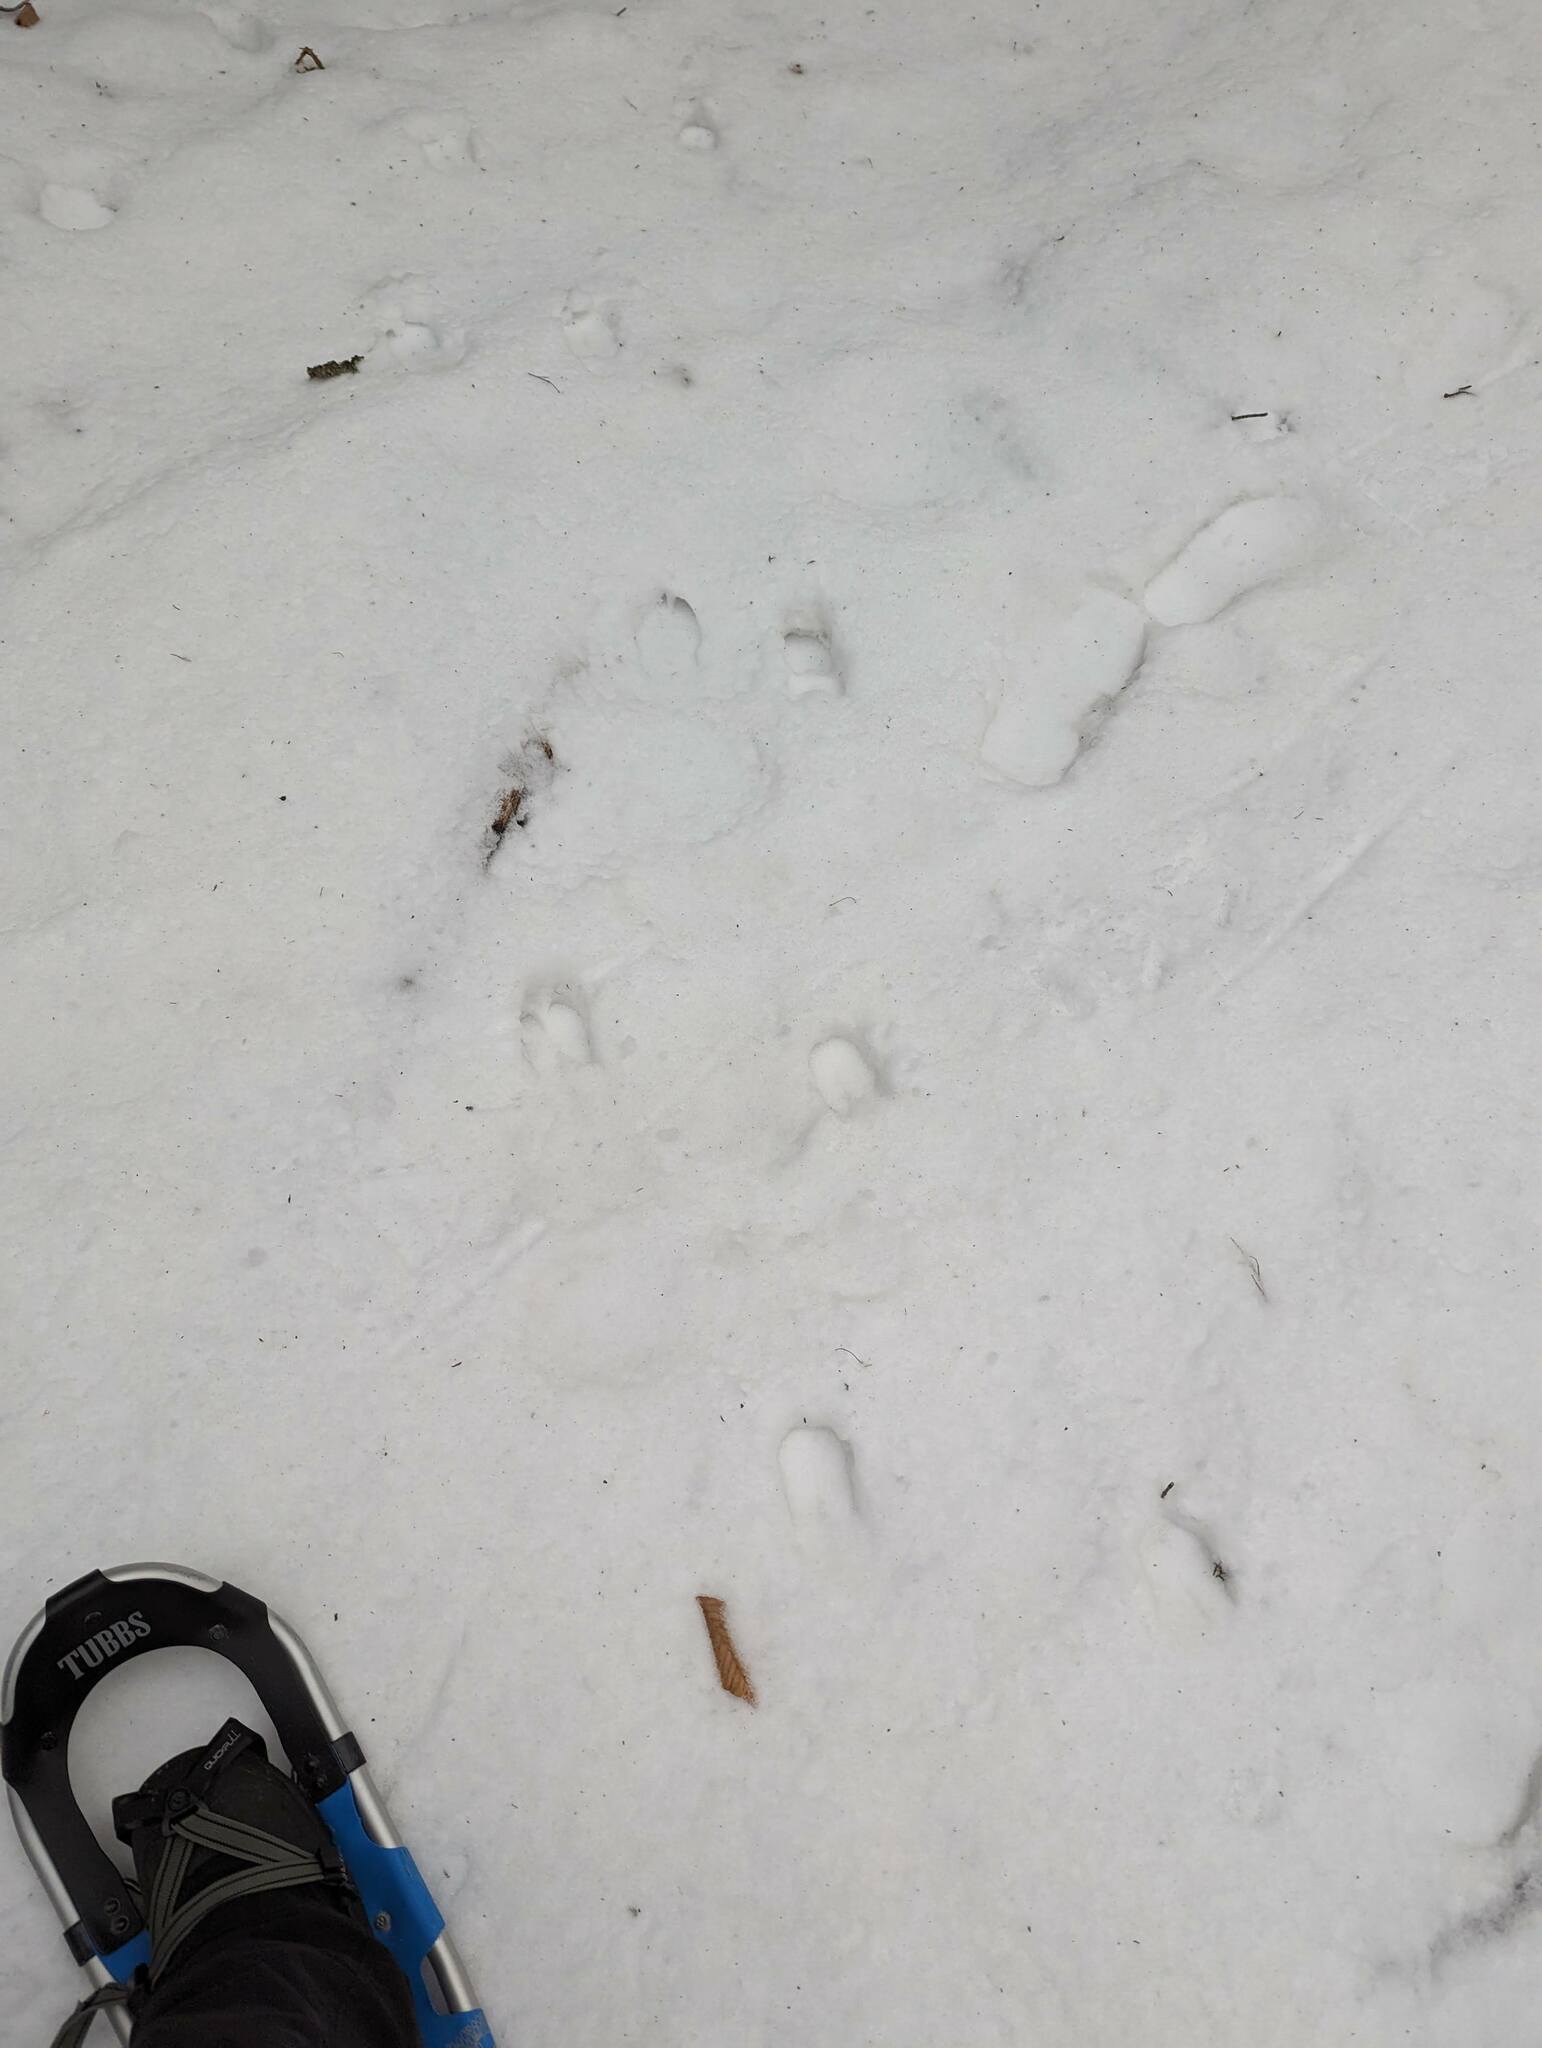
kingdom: Animalia
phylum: Chordata
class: Mammalia
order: Artiodactyla
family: Cervidae
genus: Odocoileus
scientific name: Odocoileus virginianus
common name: White-tailed deer
